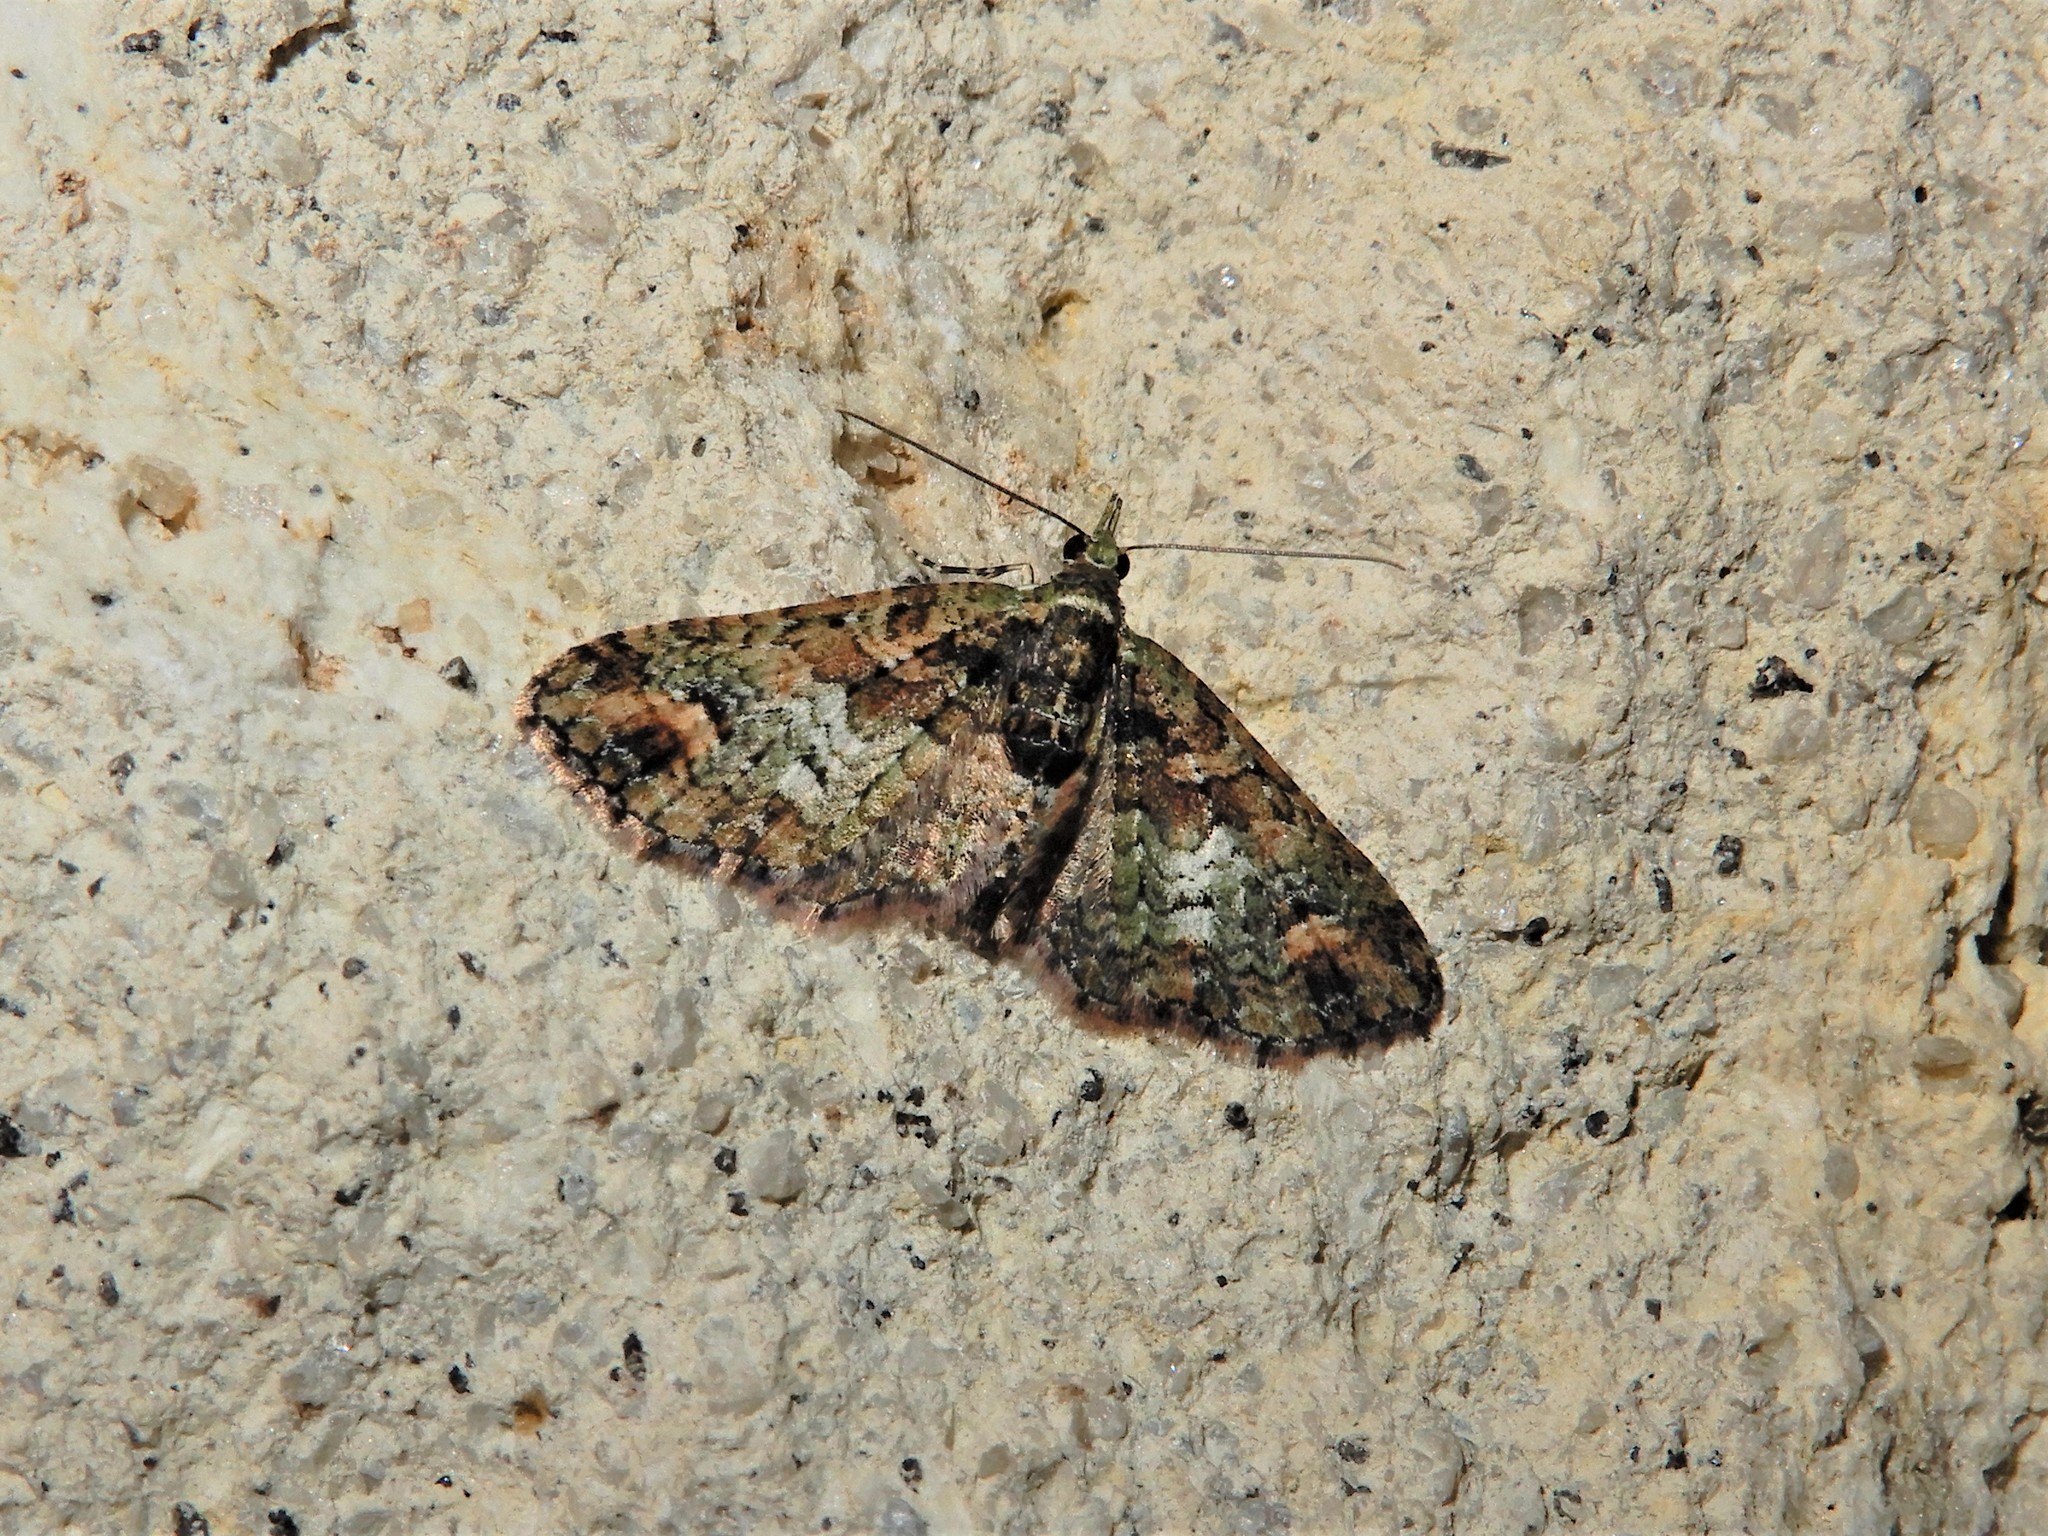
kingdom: Animalia
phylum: Arthropoda
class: Insecta
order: Lepidoptera
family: Geometridae
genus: Idaea
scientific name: Idaea mutanda
